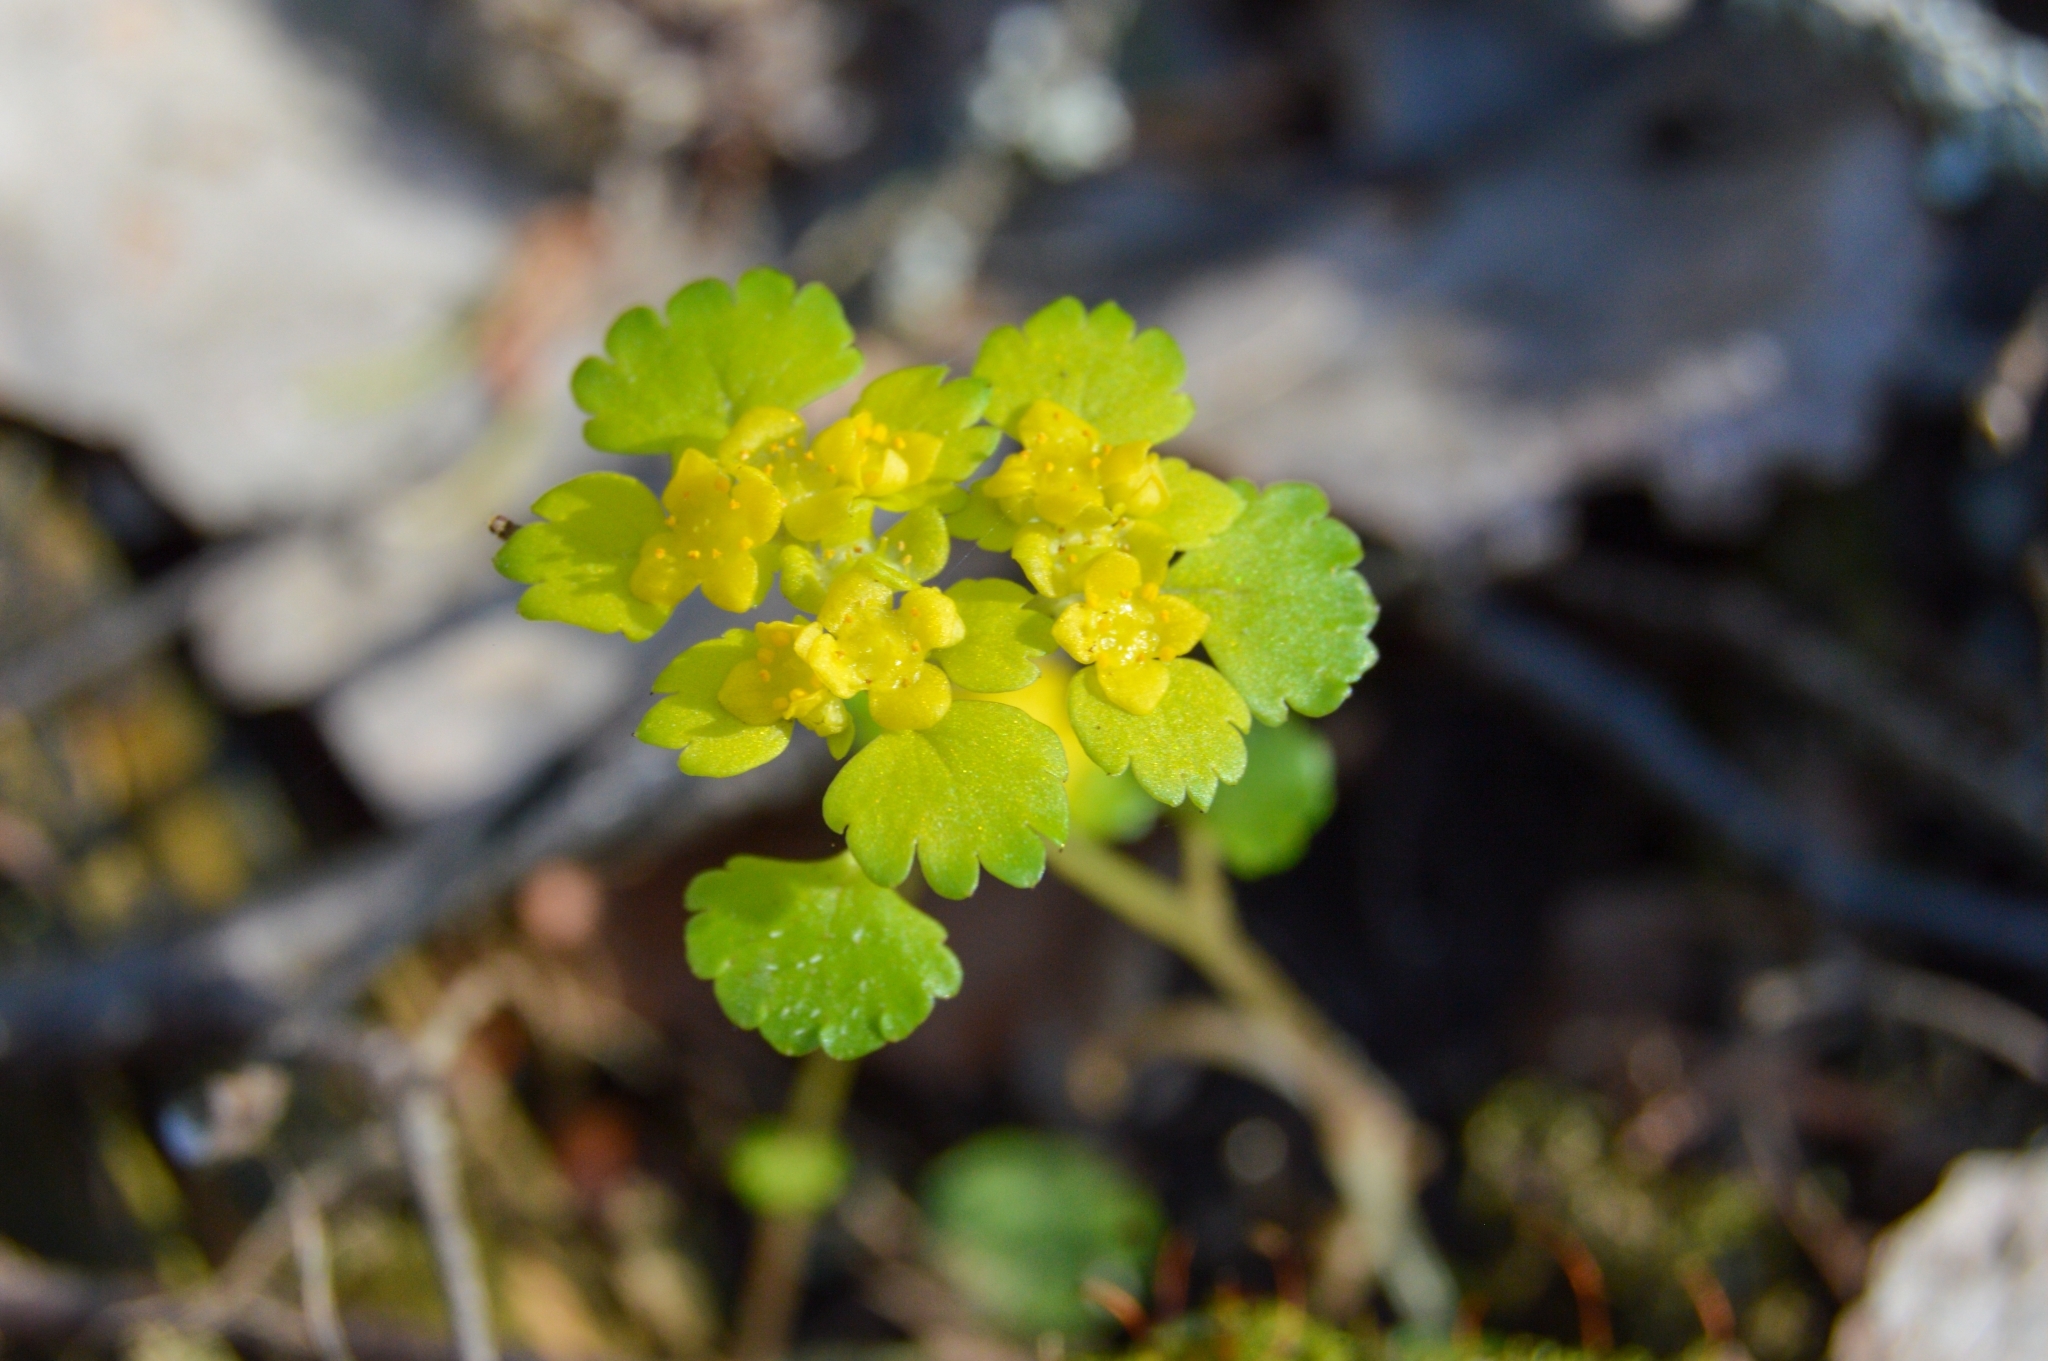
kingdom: Plantae
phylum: Tracheophyta
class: Magnoliopsida
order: Saxifragales
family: Saxifragaceae
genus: Chrysosplenium
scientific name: Chrysosplenium alternifolium
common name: Alternate-leaved golden-saxifrage
